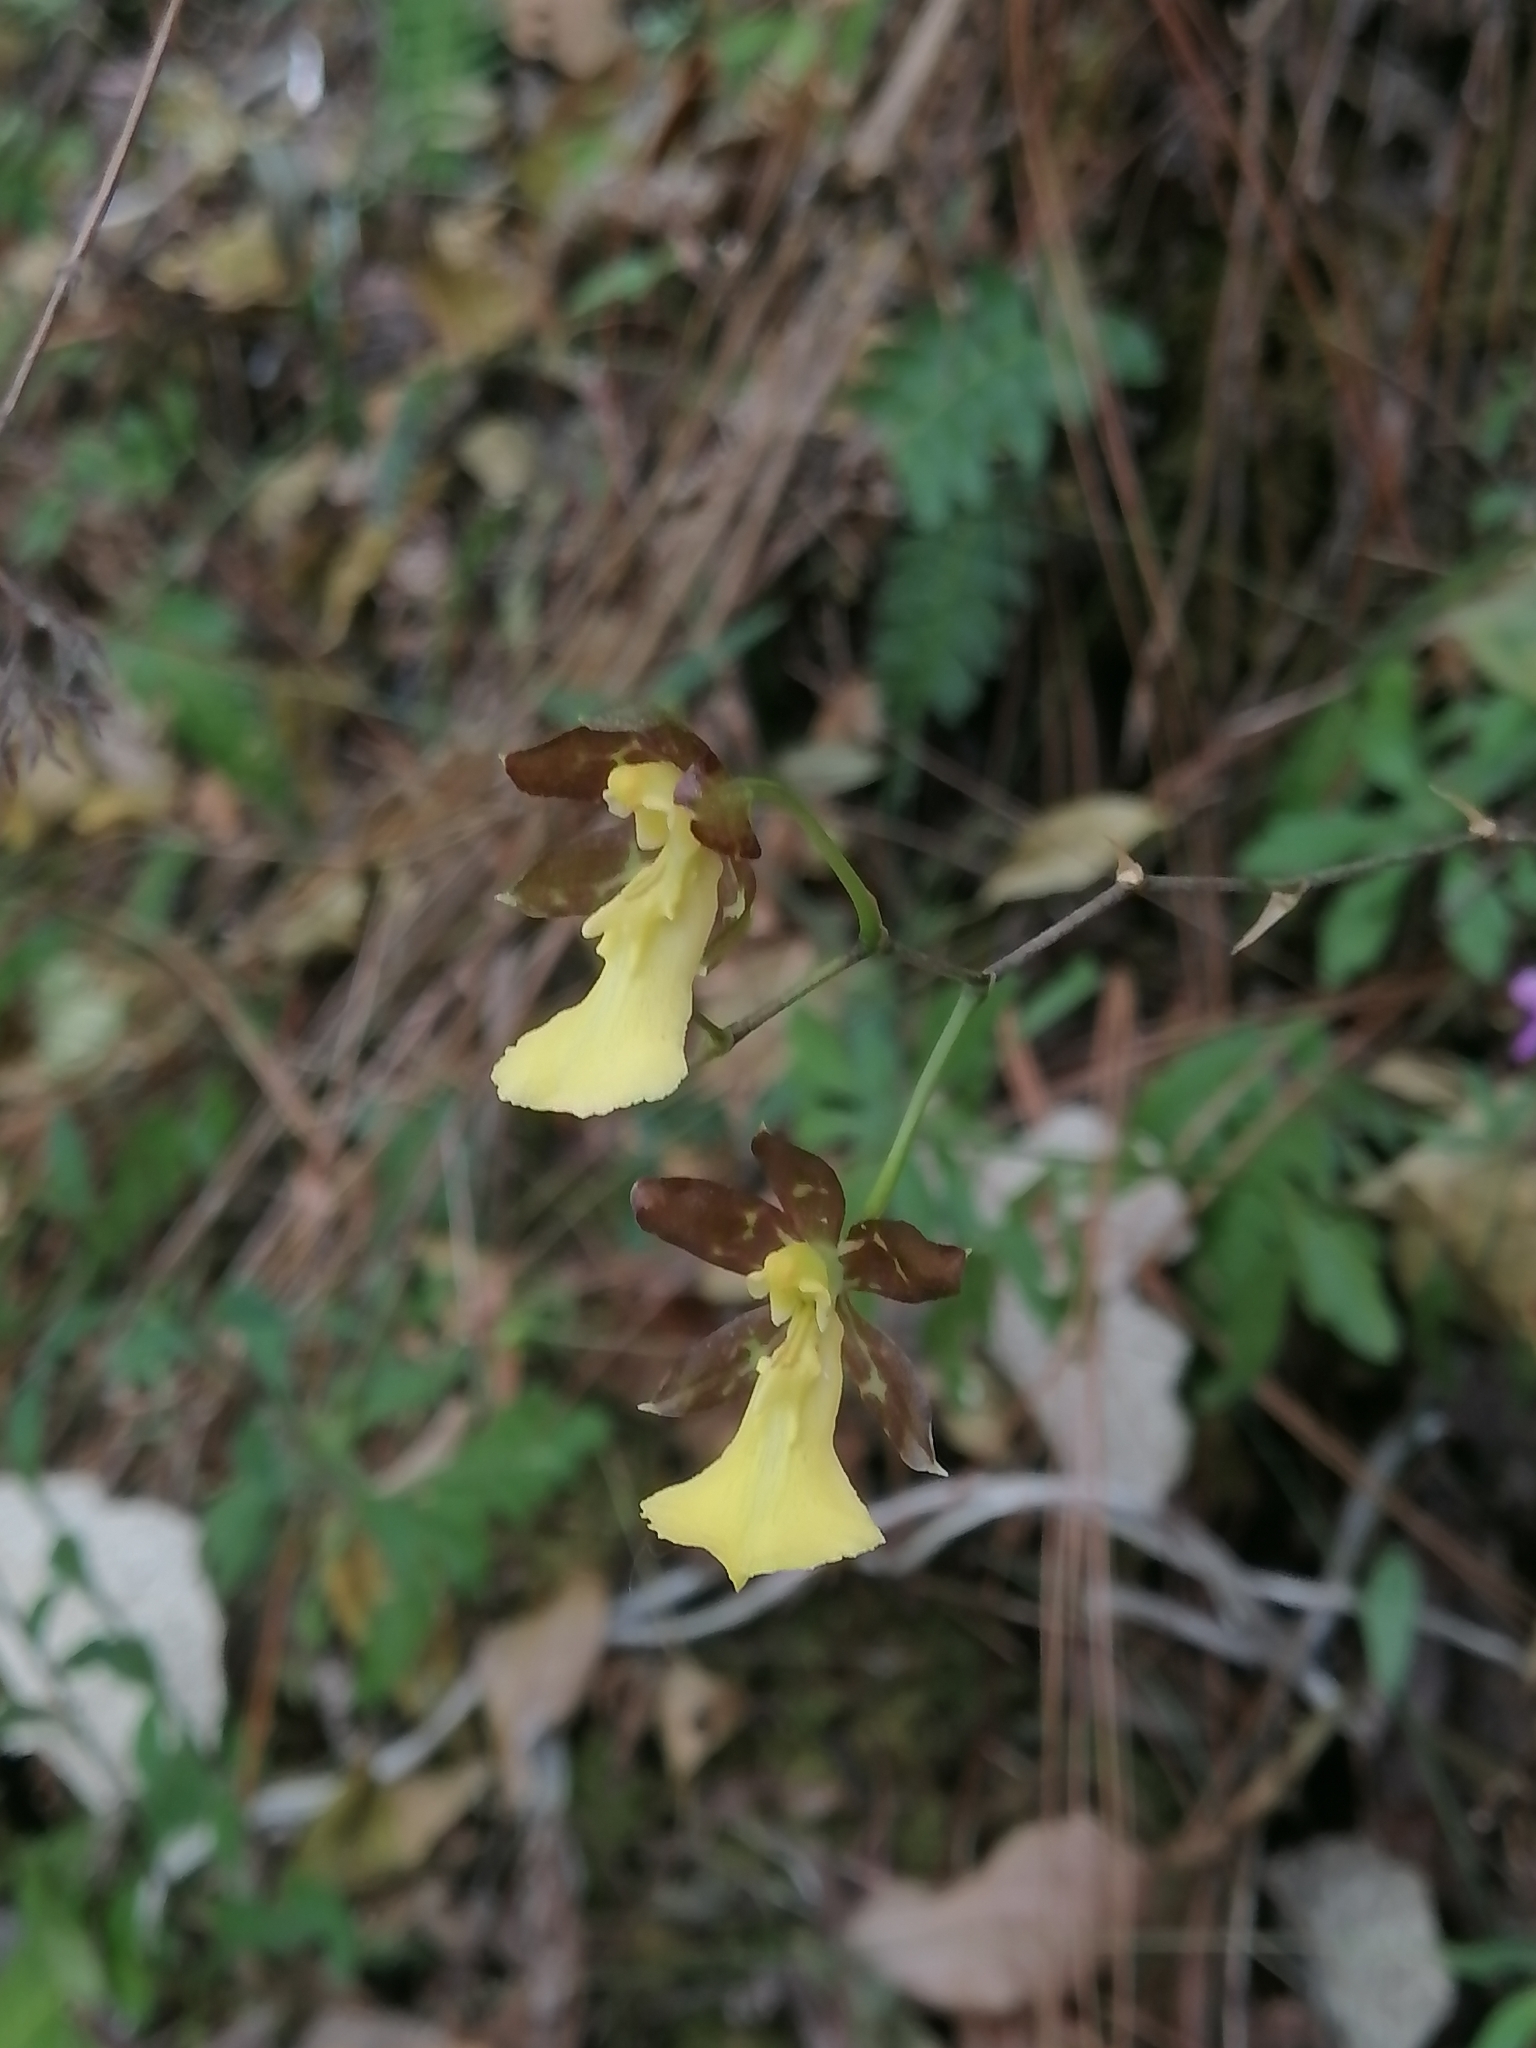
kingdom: Plantae
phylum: Tracheophyta
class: Liliopsida
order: Asparagales
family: Orchidaceae
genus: Oncidium
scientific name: Oncidium graminifolium
